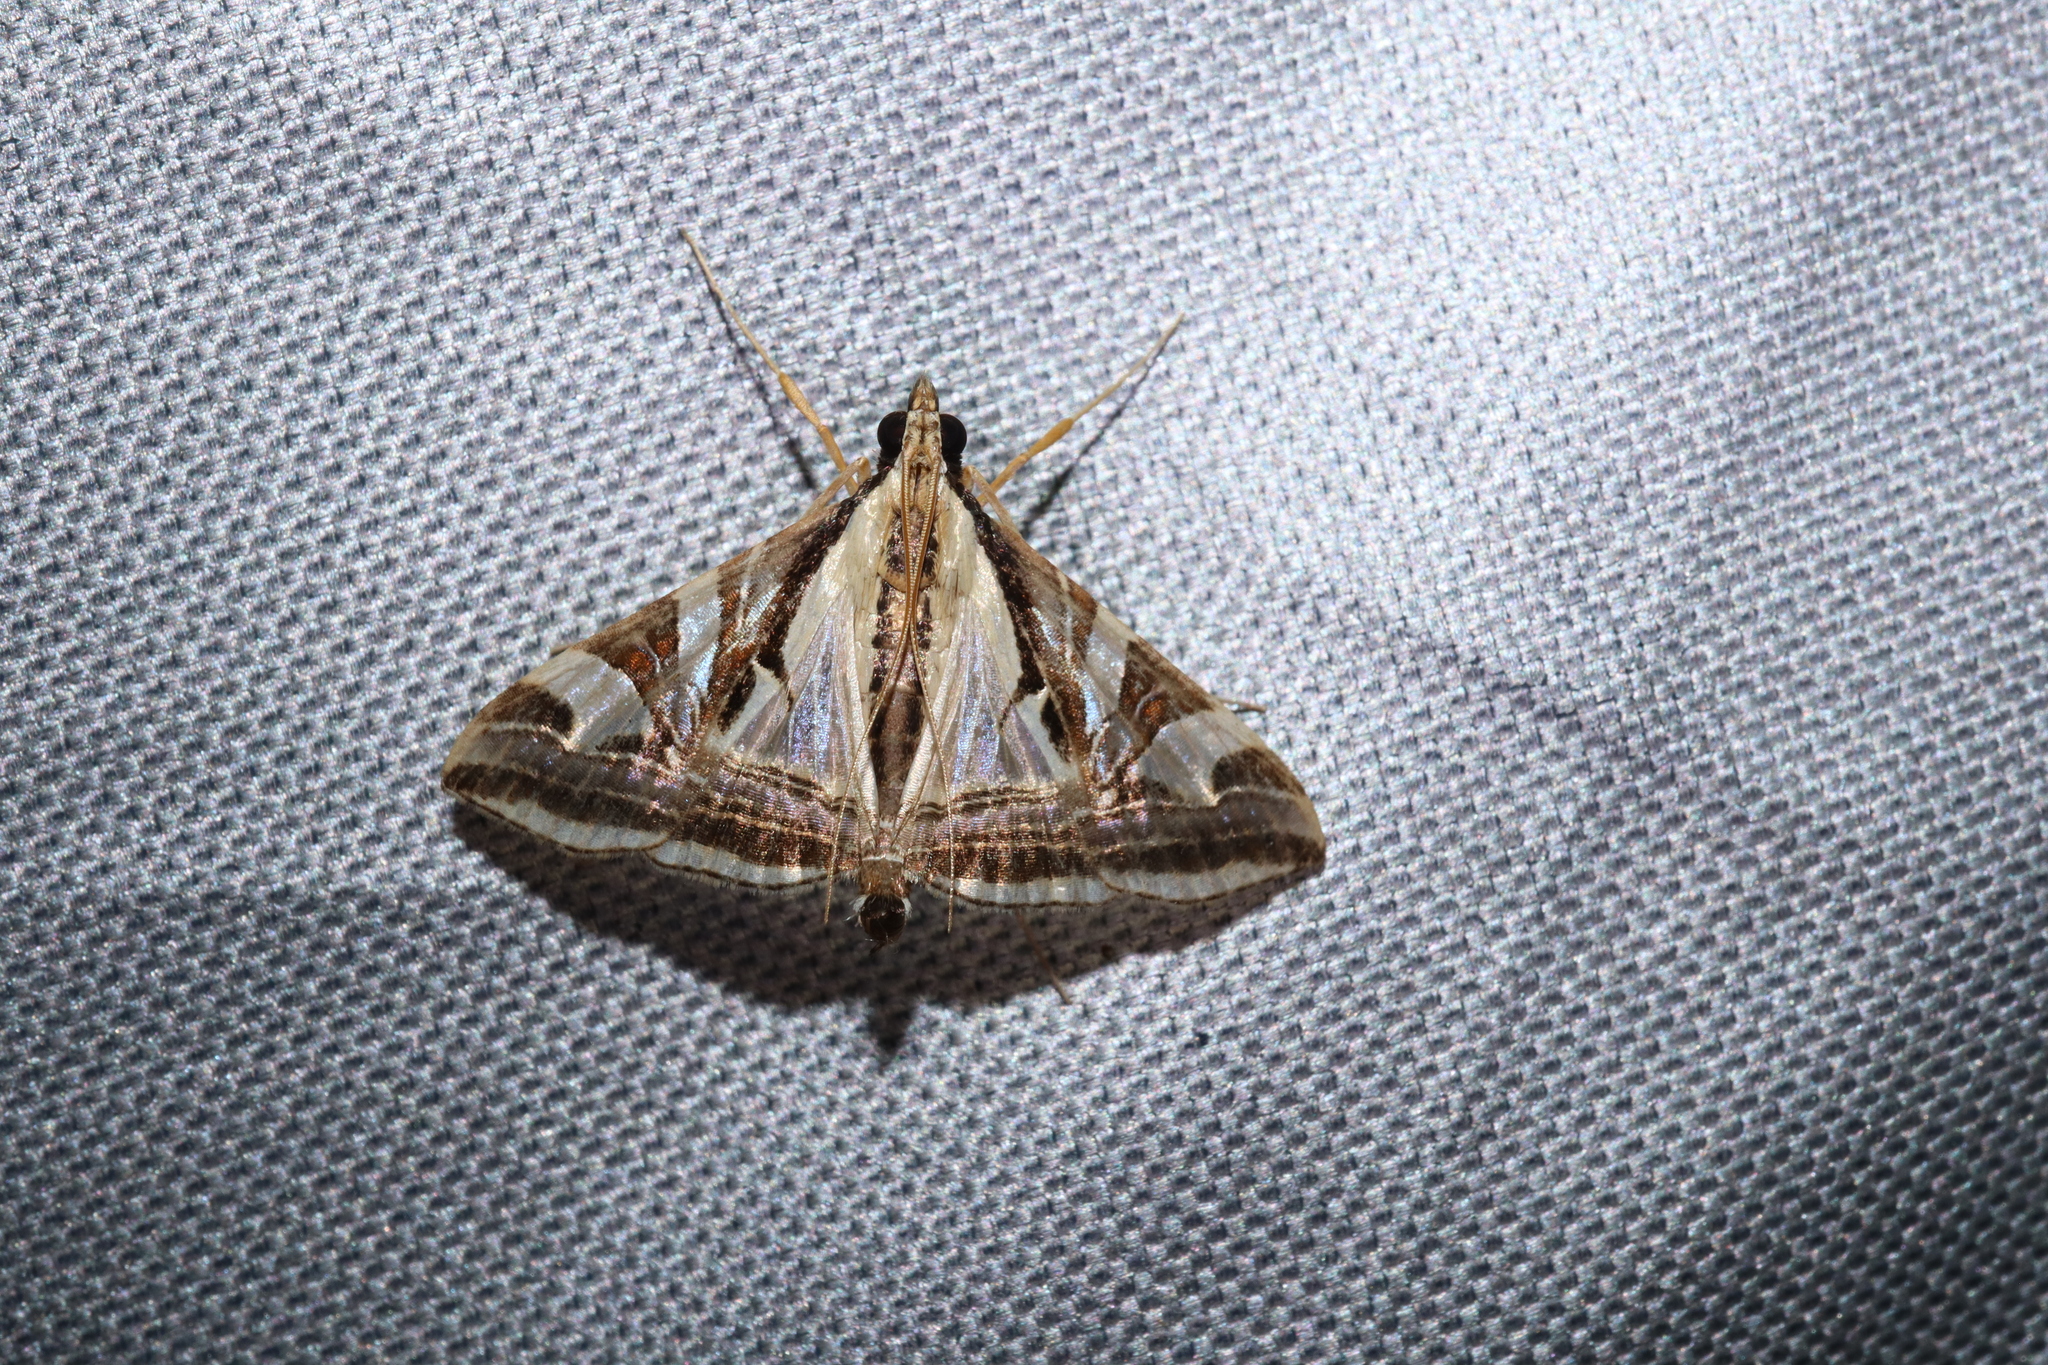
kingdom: Animalia
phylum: Arthropoda
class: Insecta
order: Lepidoptera
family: Crambidae
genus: Agrioglypta
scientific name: Agrioglypta excelsalis
